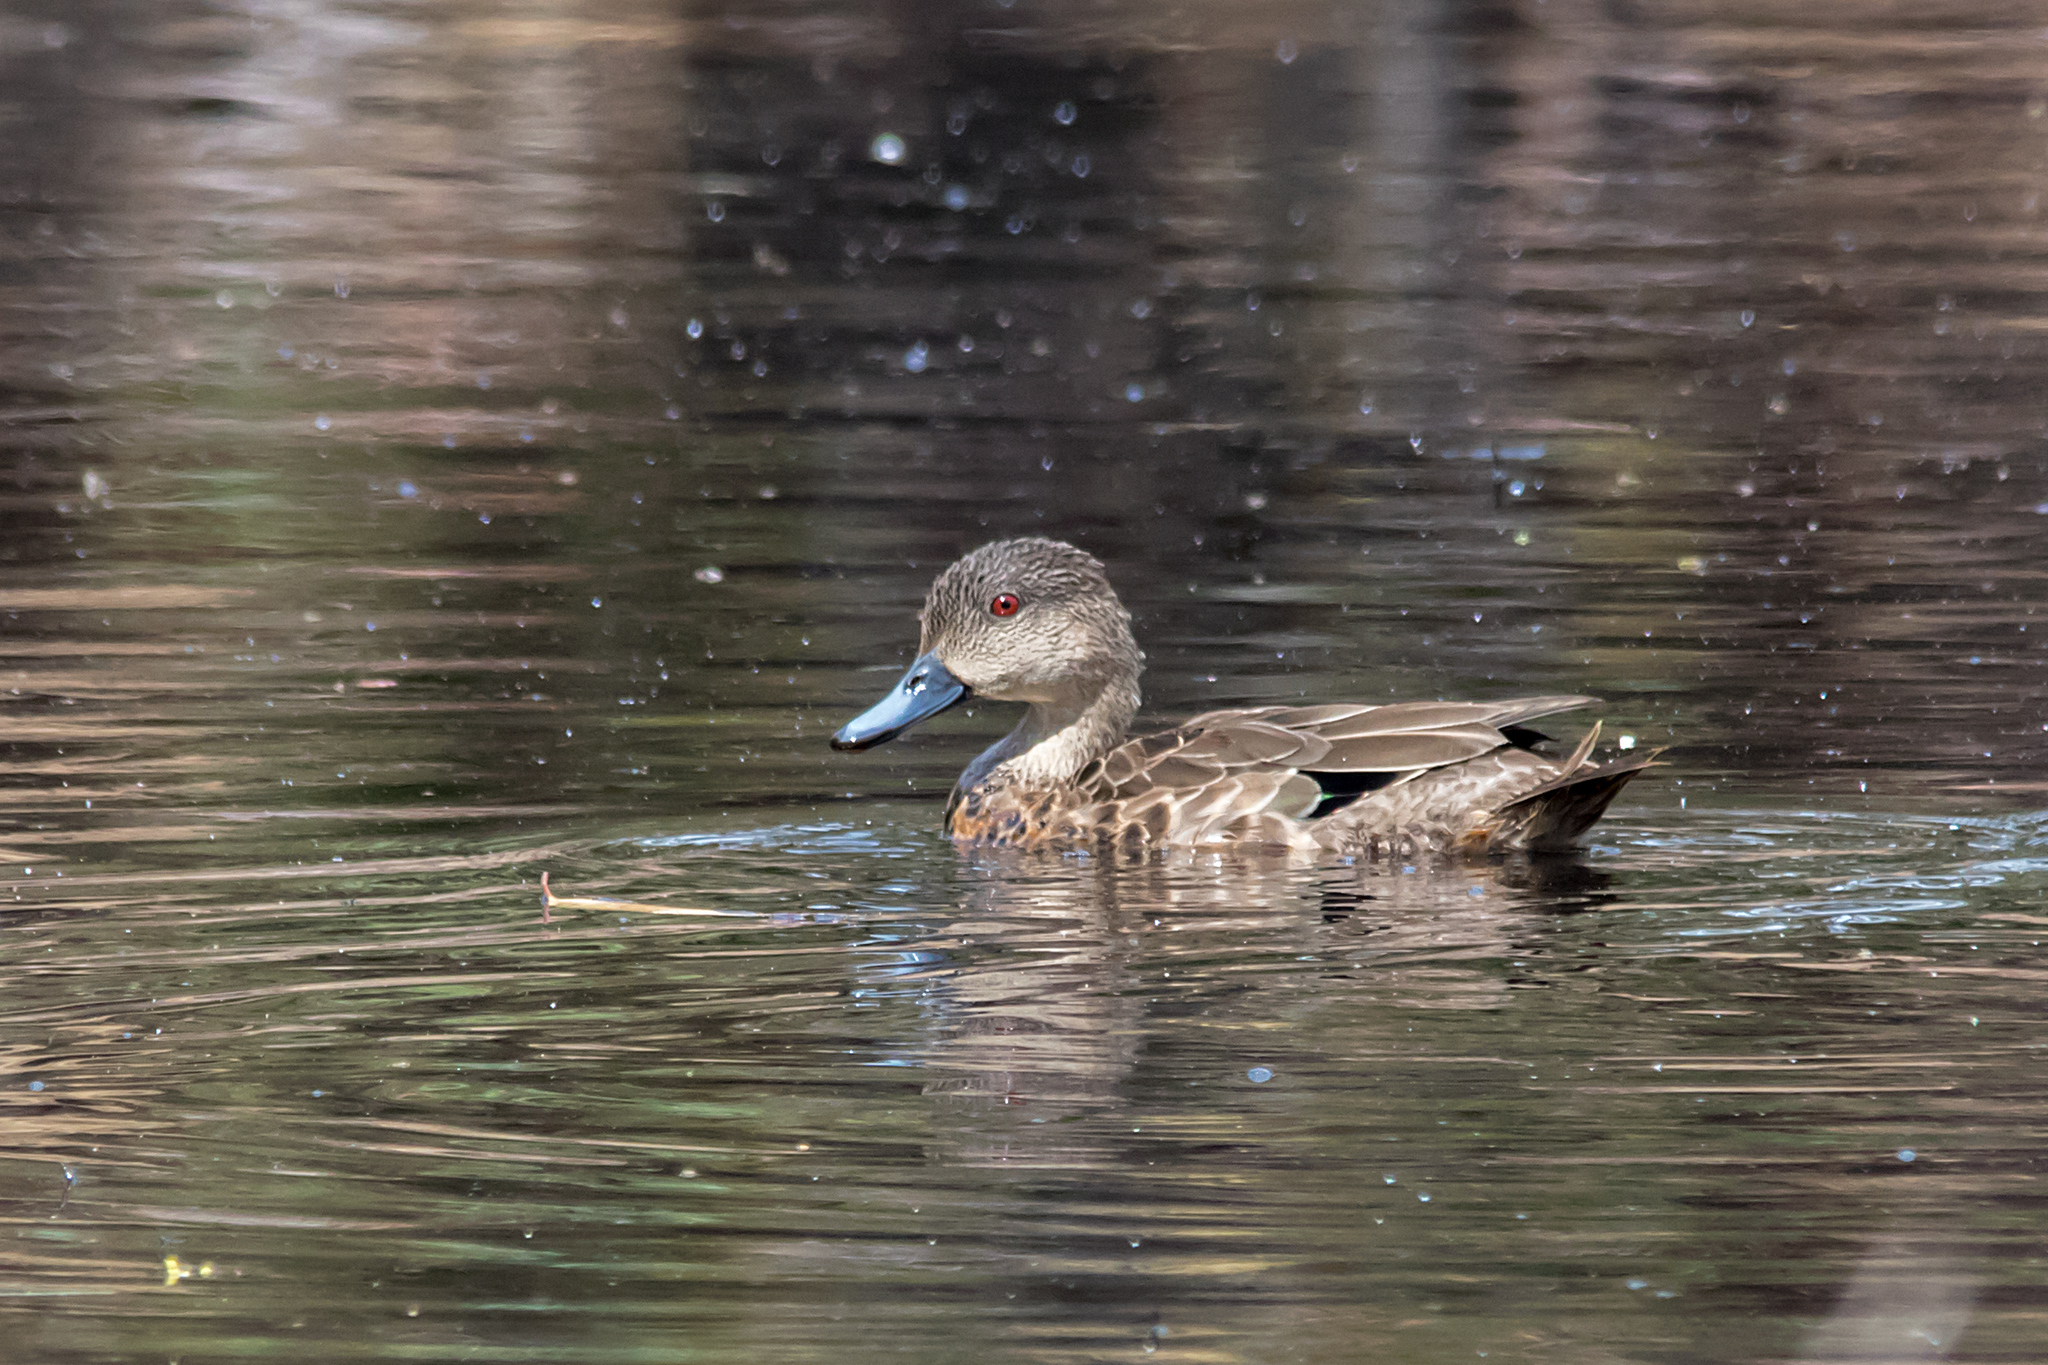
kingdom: Animalia
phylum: Chordata
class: Aves
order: Anseriformes
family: Anatidae
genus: Anas
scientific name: Anas gracilis
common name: Grey teal
